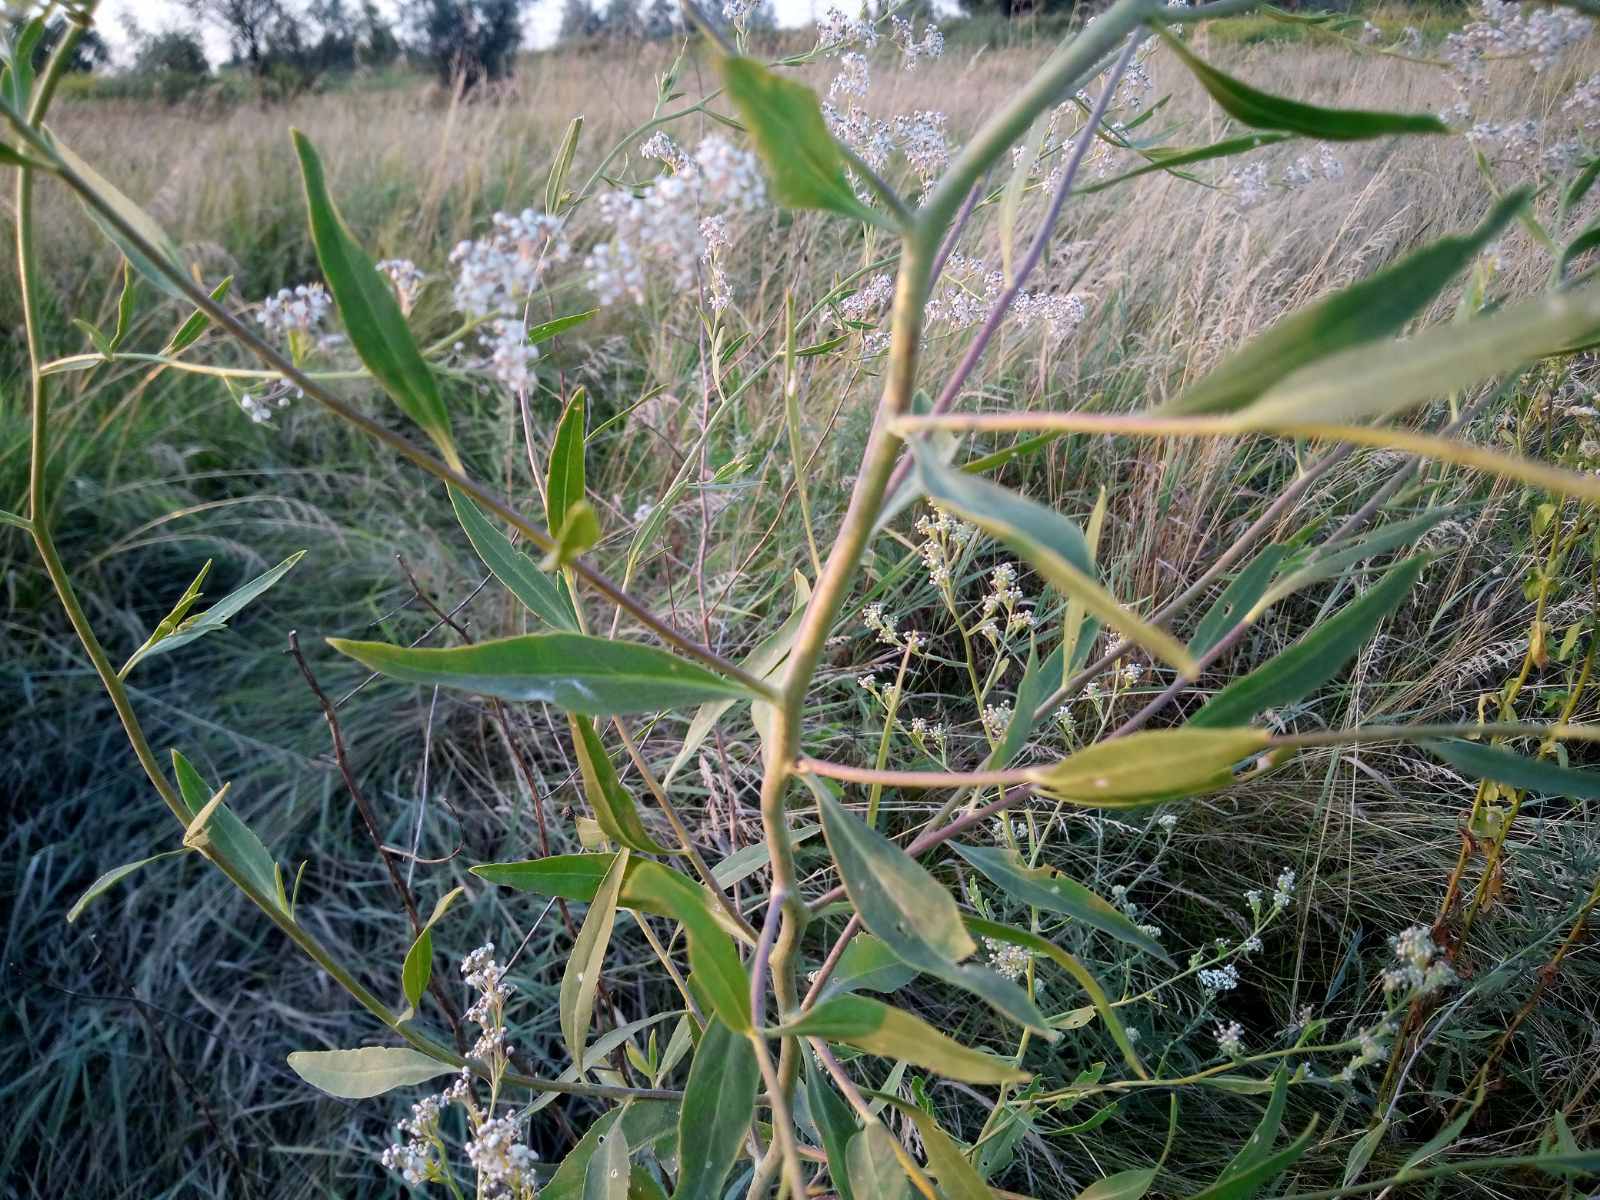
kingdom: Plantae
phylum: Tracheophyta
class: Magnoliopsida
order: Brassicales
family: Brassicaceae
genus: Lepidium
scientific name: Lepidium latifolium
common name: Dittander
